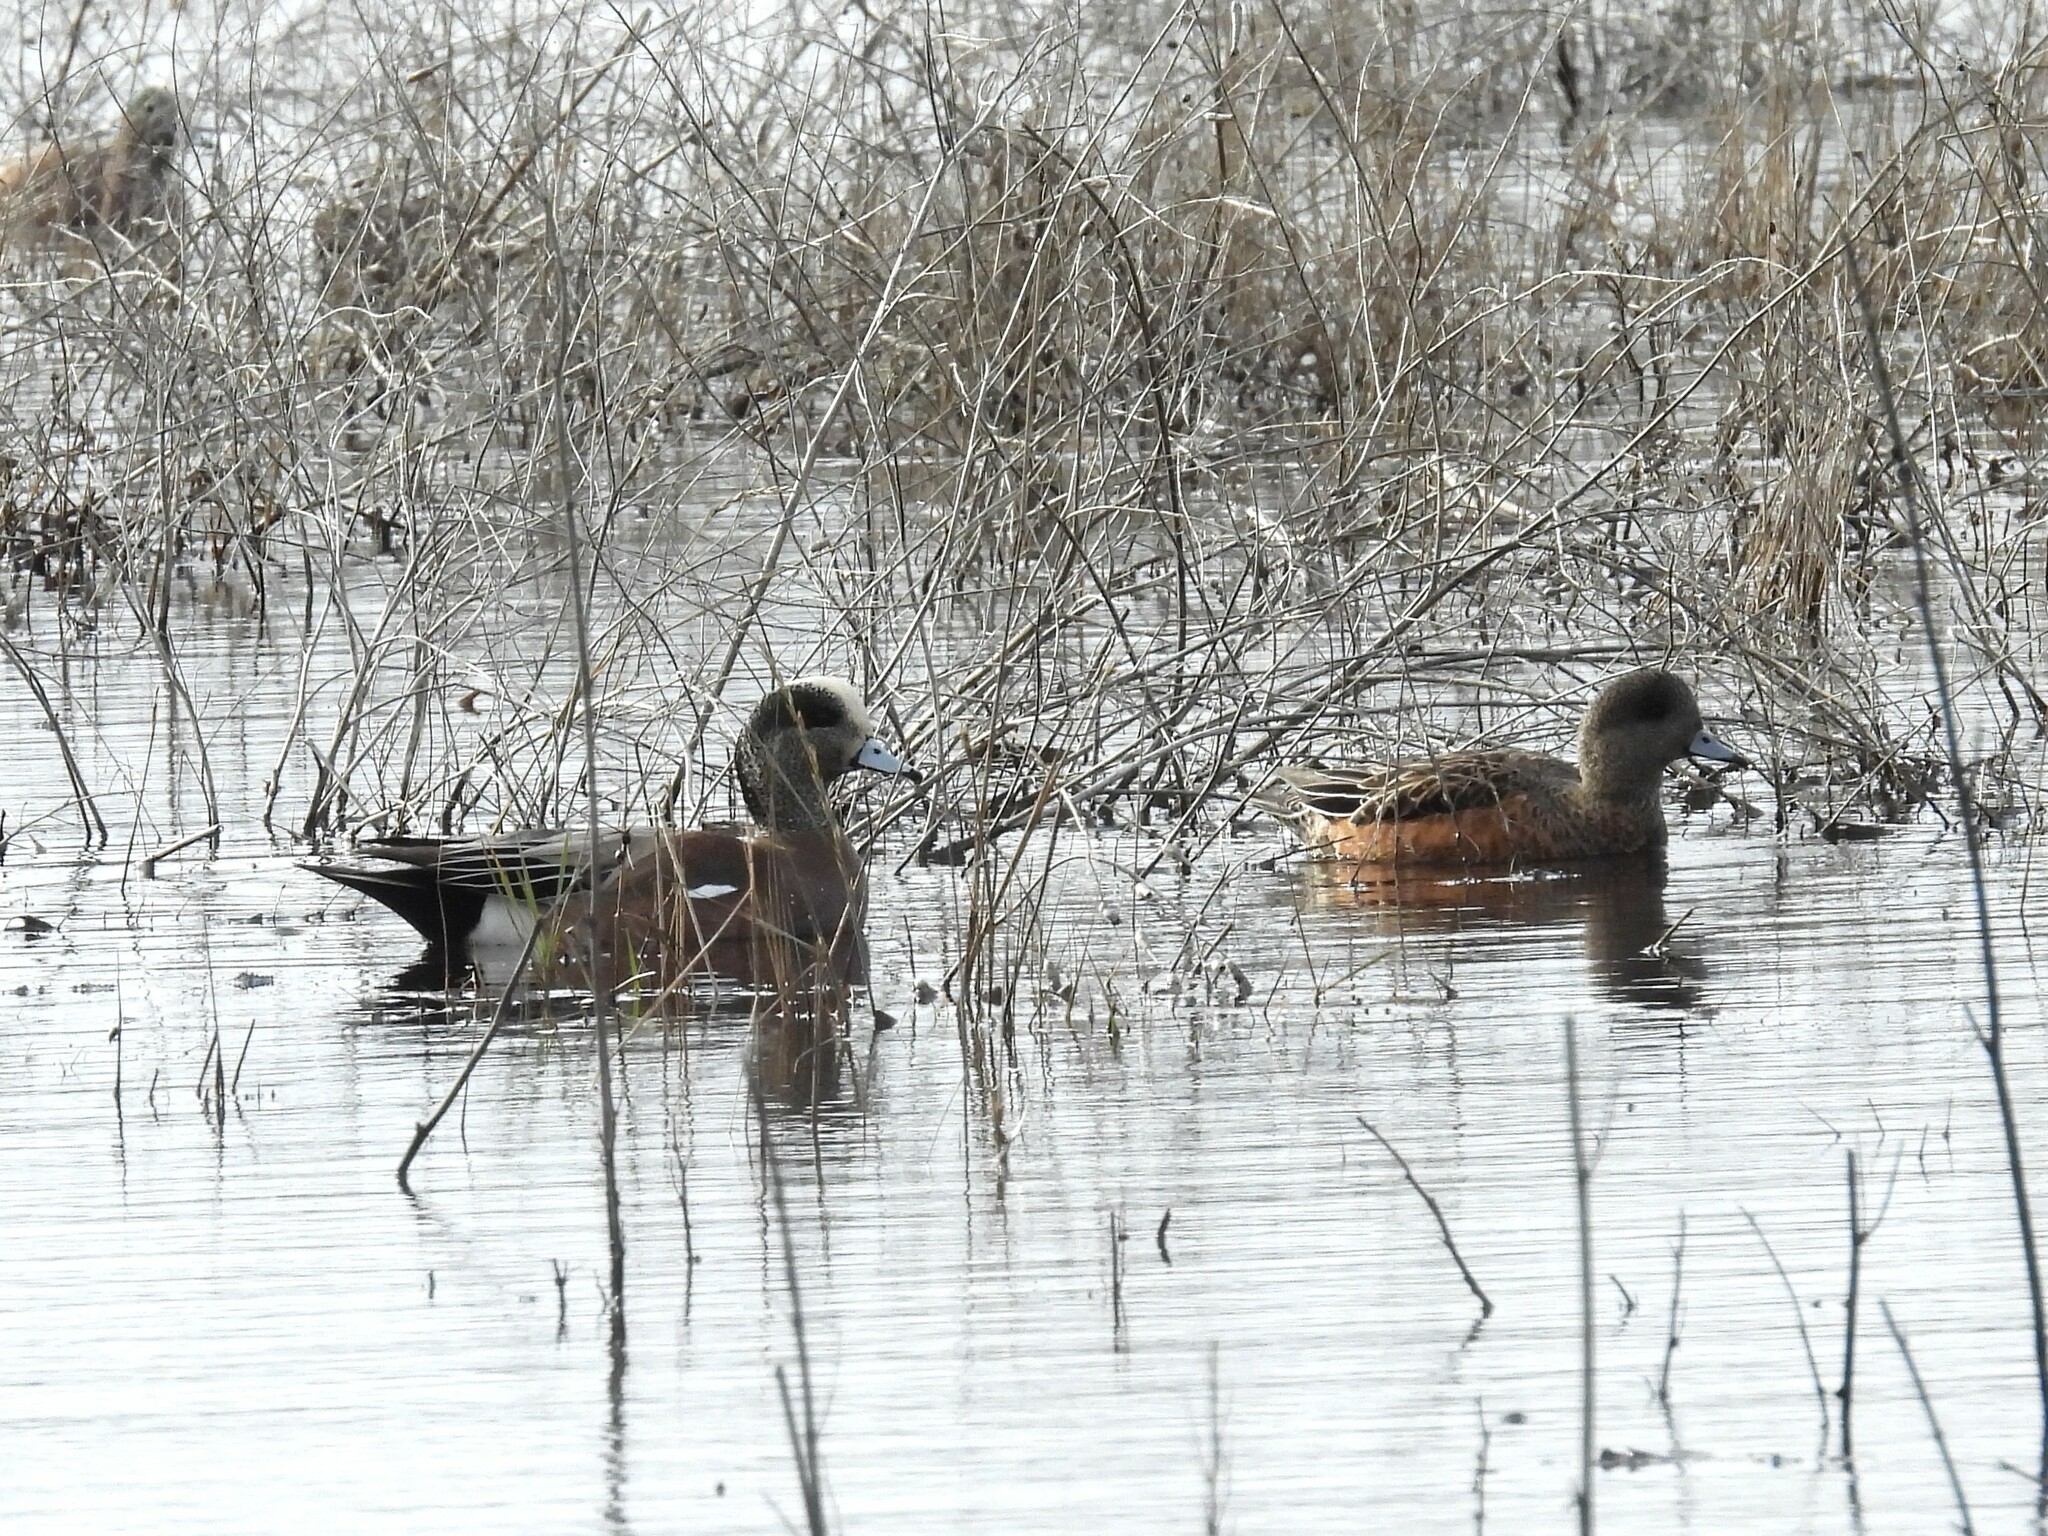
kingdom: Animalia
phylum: Chordata
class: Aves
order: Anseriformes
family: Anatidae
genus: Mareca
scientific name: Mareca americana
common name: American wigeon
